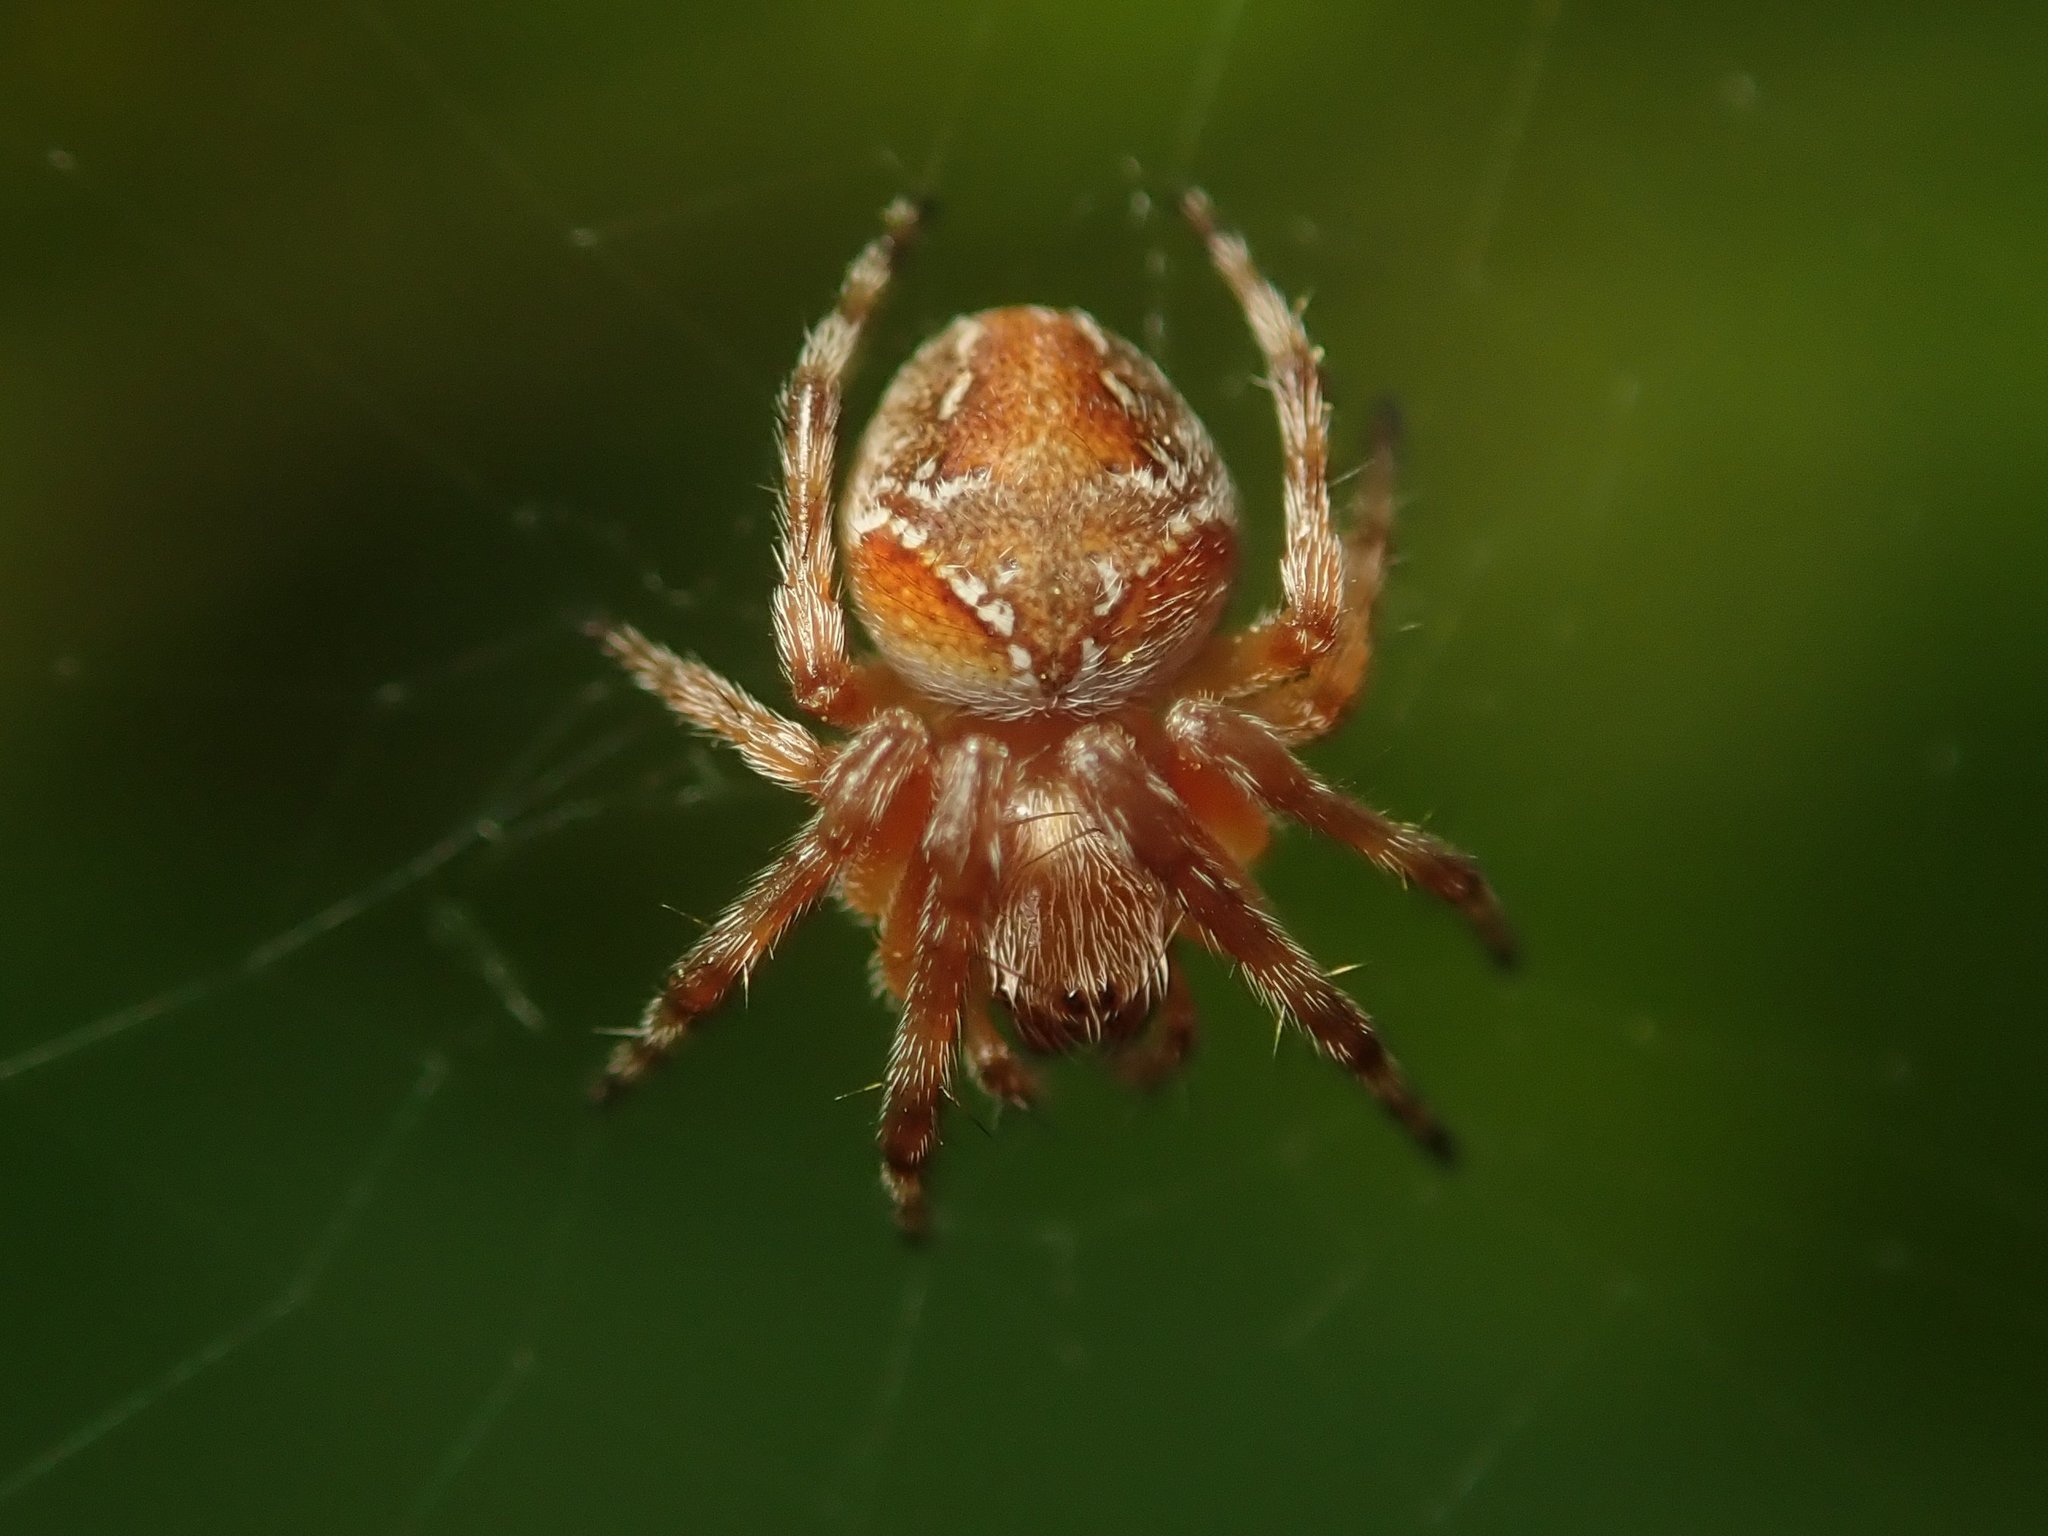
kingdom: Animalia
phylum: Arthropoda
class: Arachnida
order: Araneae
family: Araneidae
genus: Araneus
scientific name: Araneus sturmi
